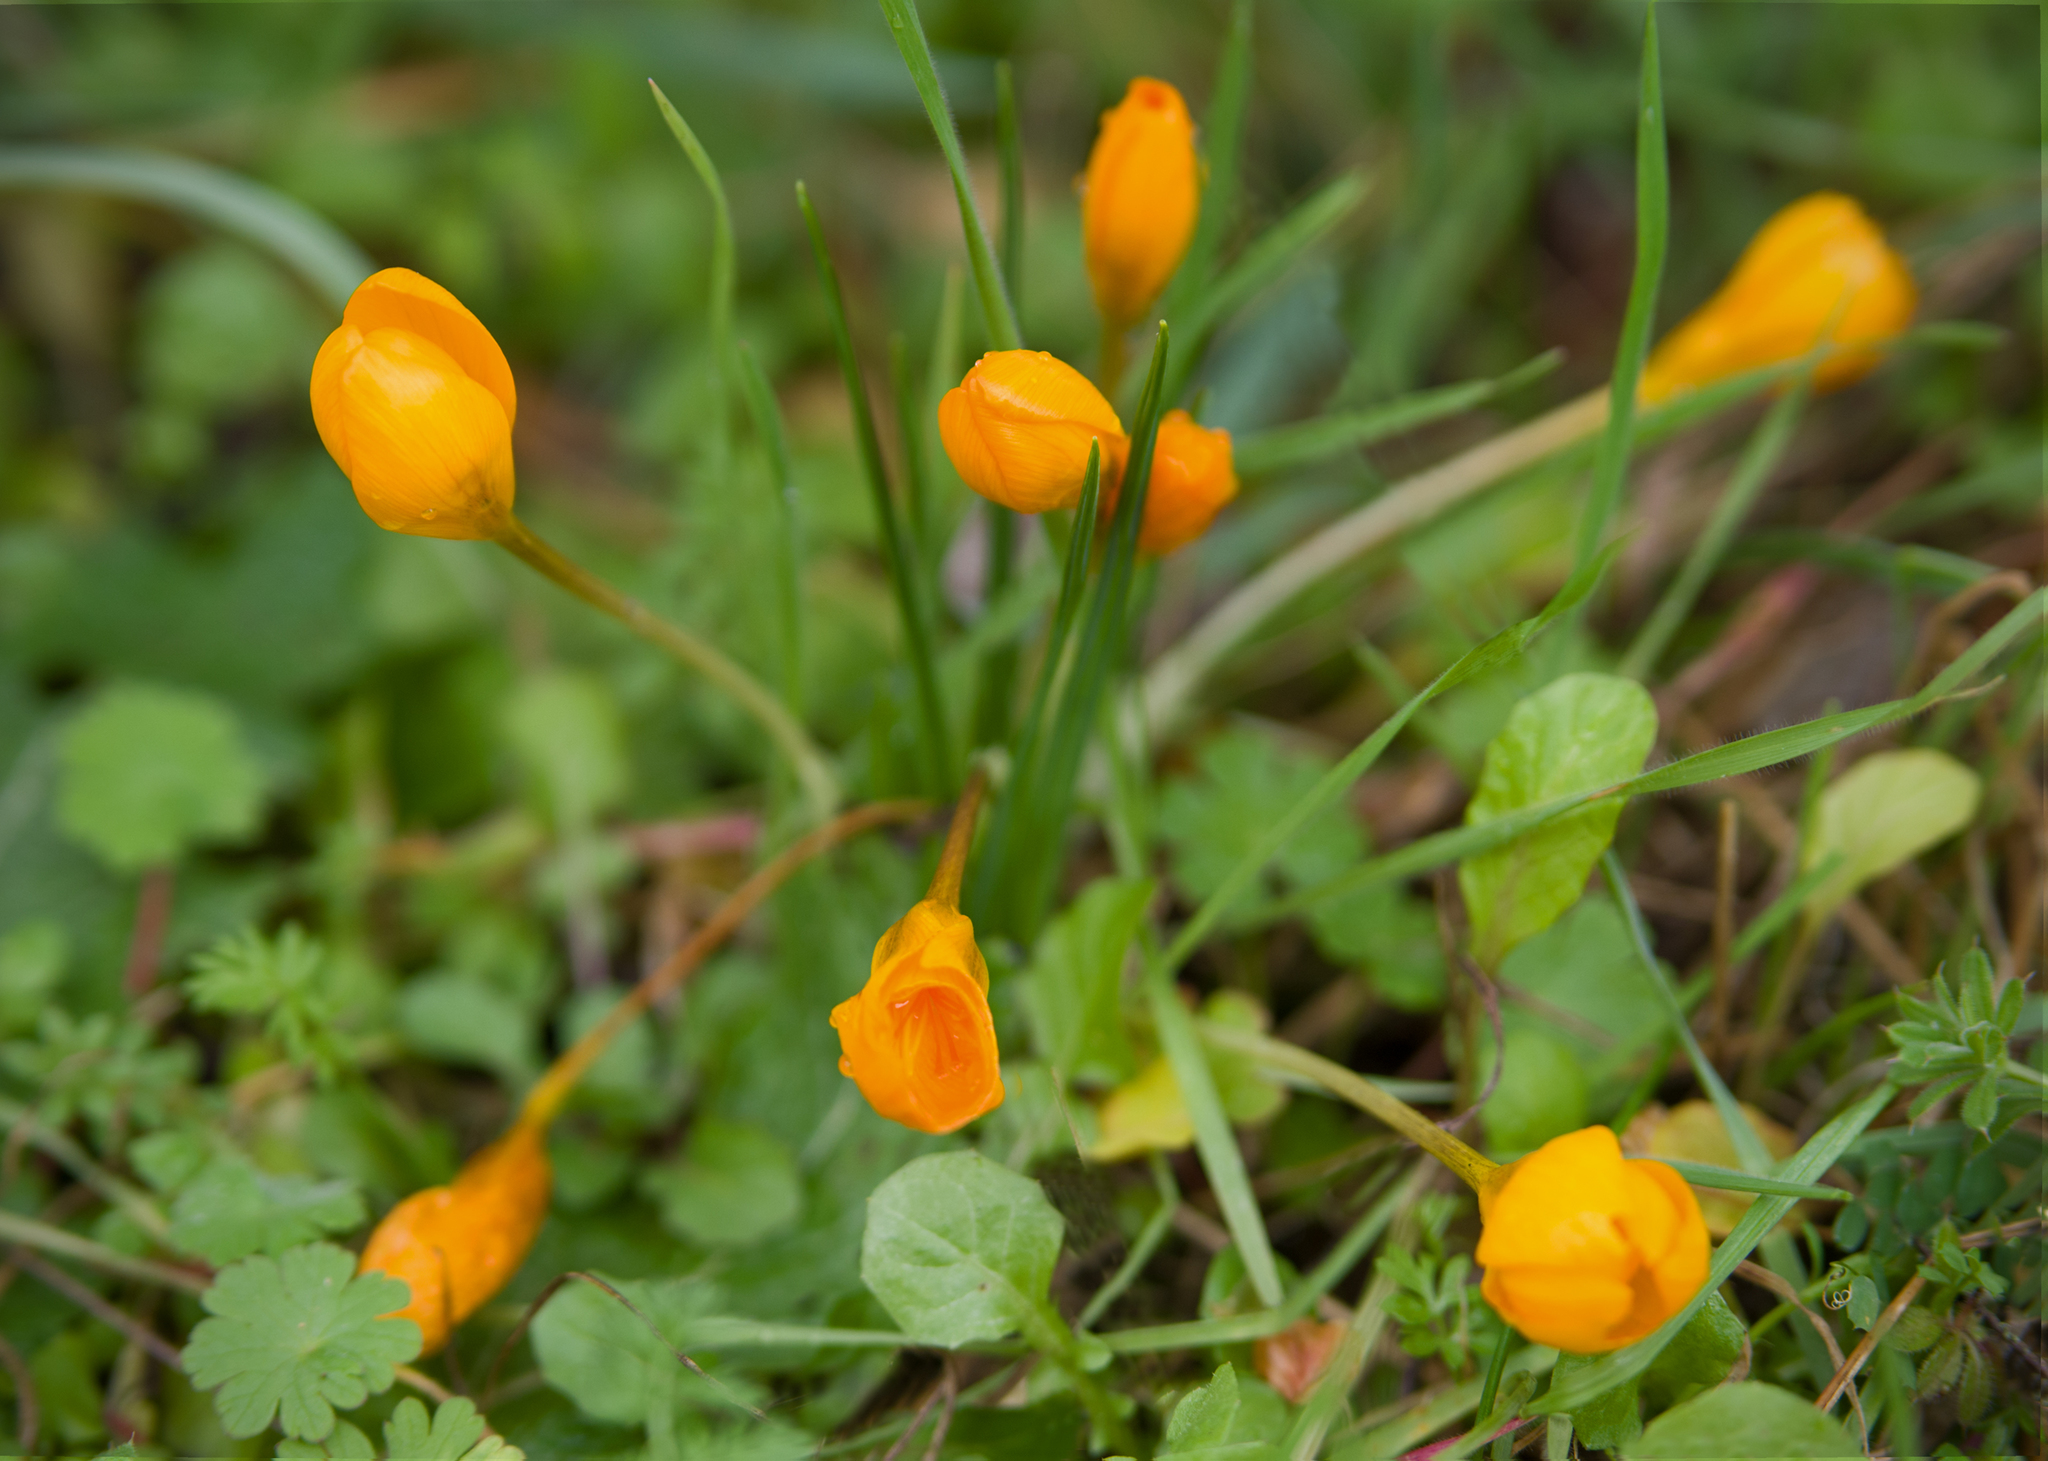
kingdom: Plantae
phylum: Tracheophyta
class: Liliopsida
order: Asparagales
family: Iridaceae
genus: Crocus
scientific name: Crocus olivieri
